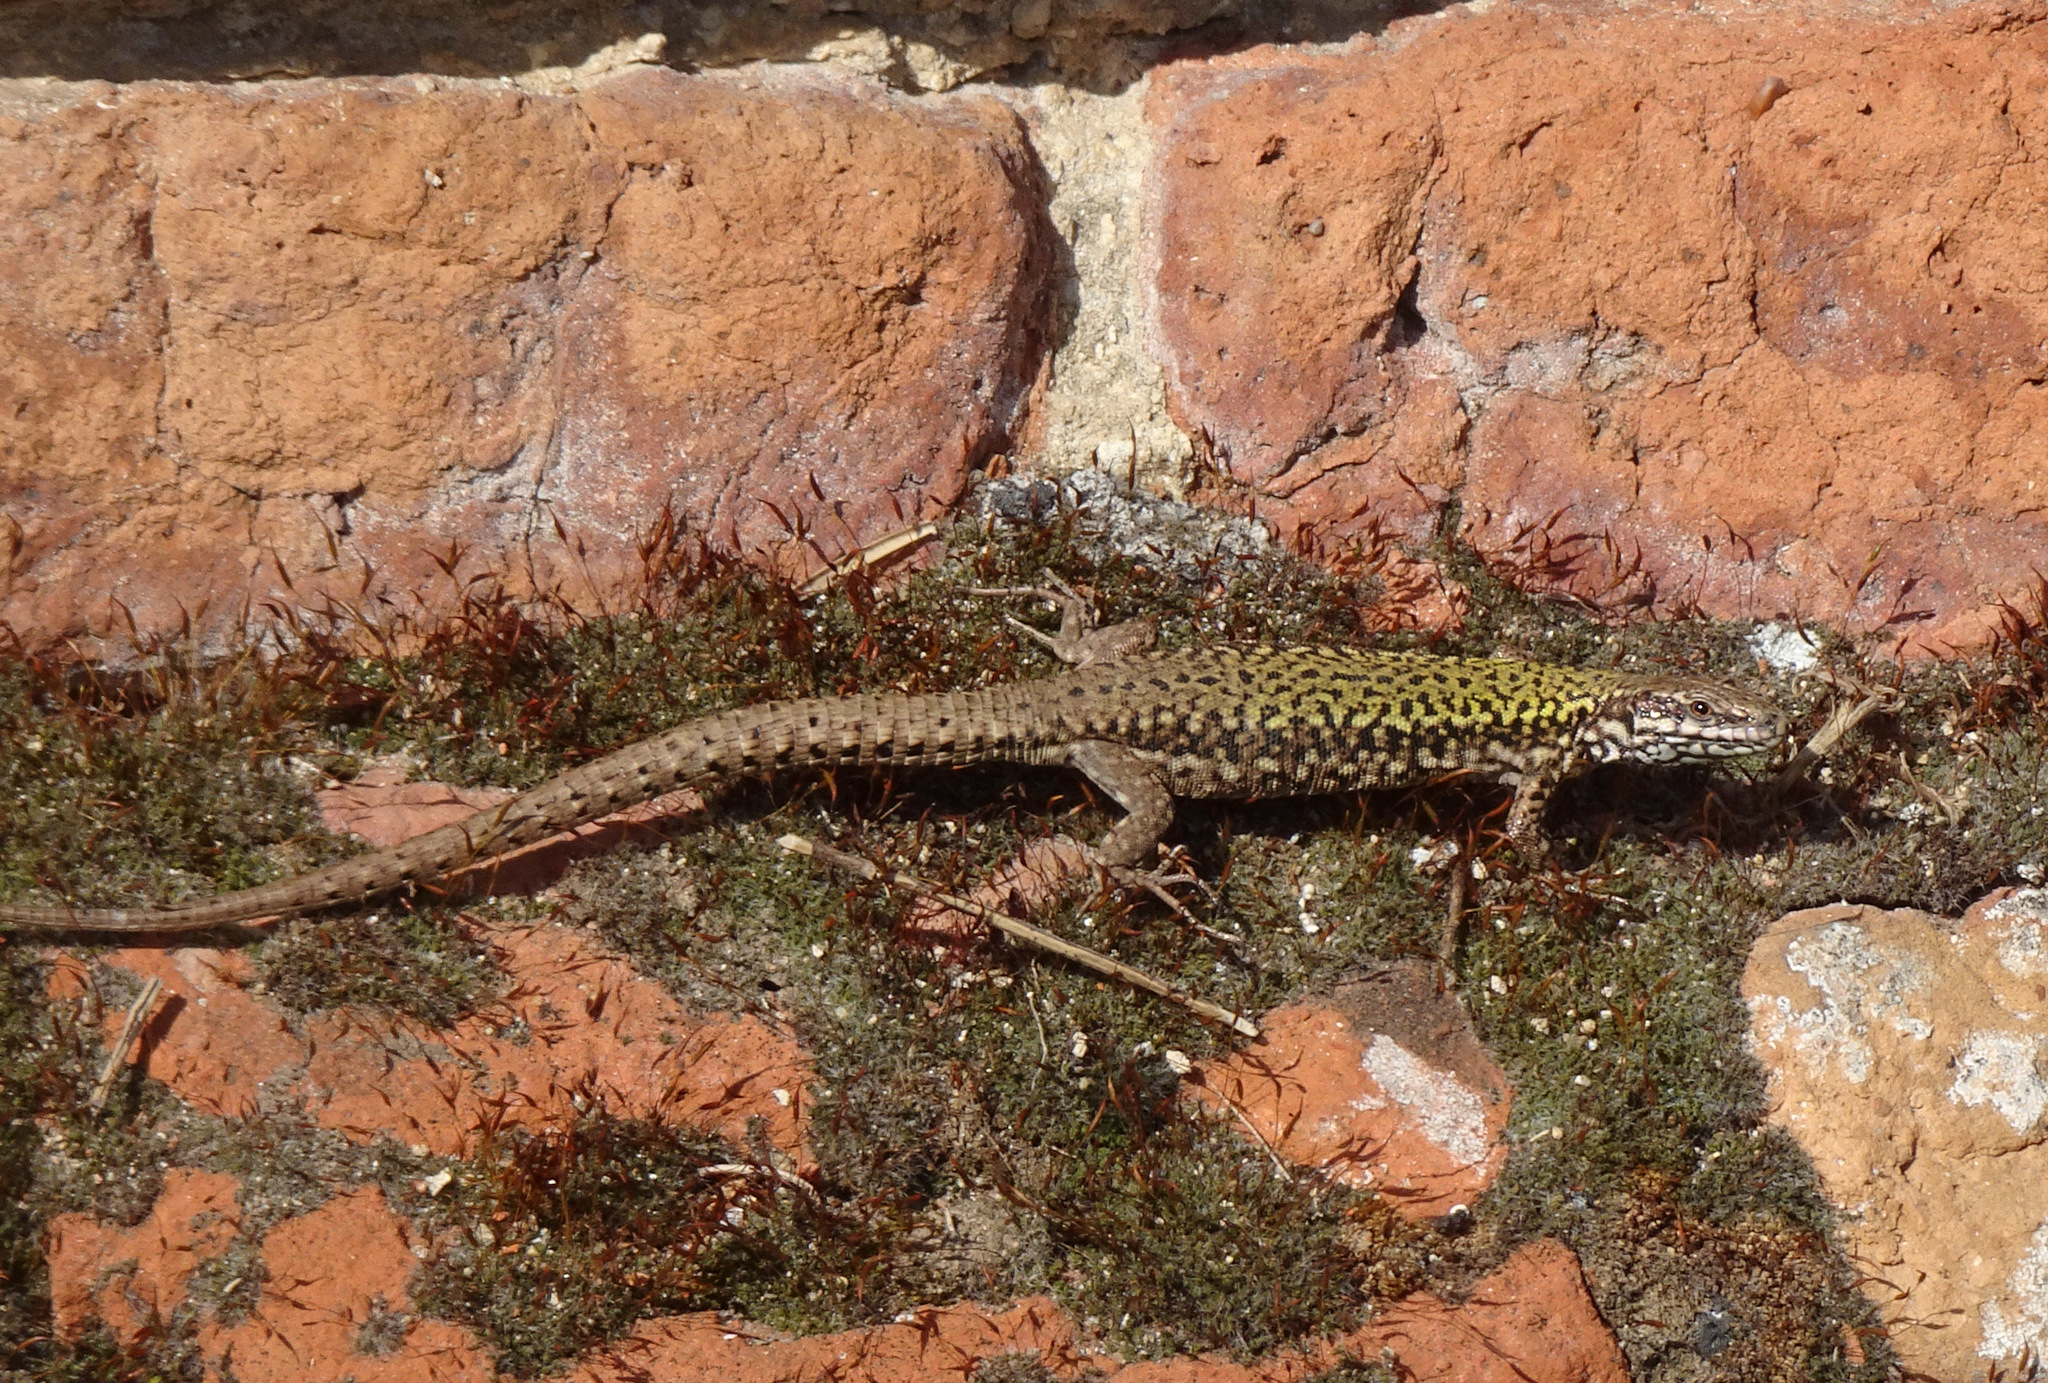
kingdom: Animalia
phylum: Chordata
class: Squamata
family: Lacertidae
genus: Podarcis
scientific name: Podarcis muralis
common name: Common wall lizard
